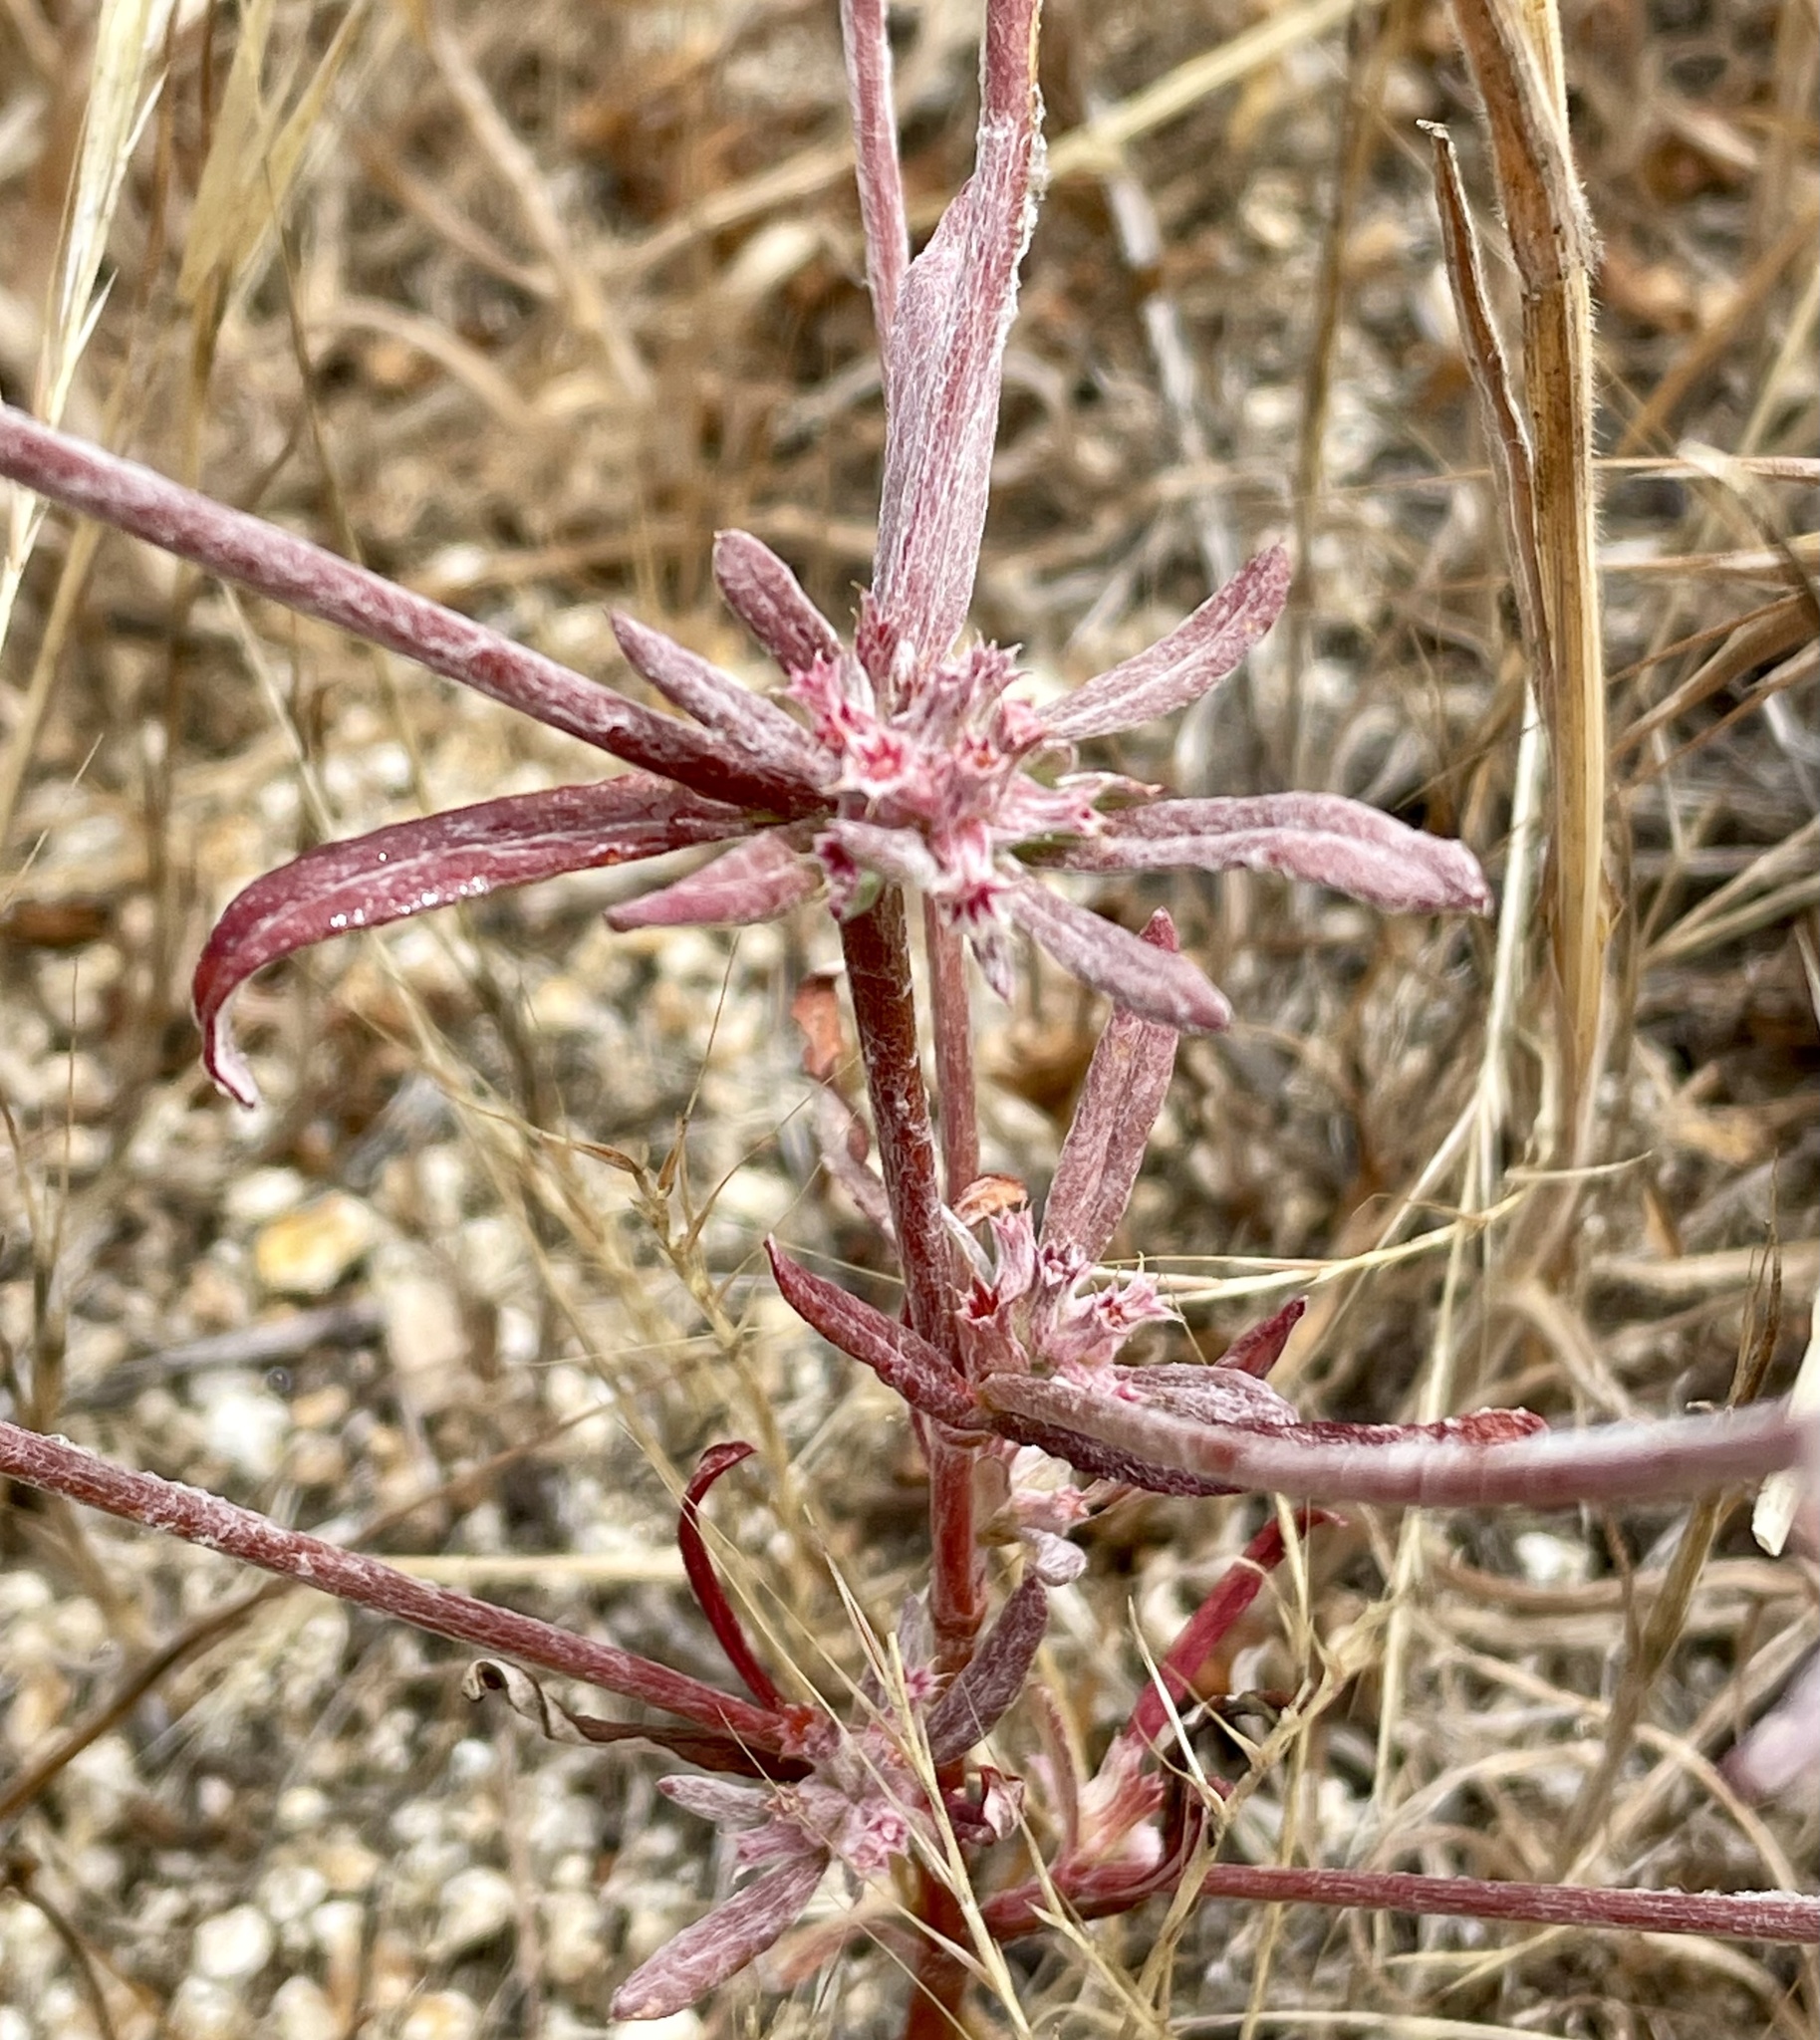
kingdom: Plantae
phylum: Tracheophyta
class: Magnoliopsida
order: Caryophyllales
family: Polygonaceae
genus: Chorizanthe
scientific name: Chorizanthe membranacea
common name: Pink spineflower
